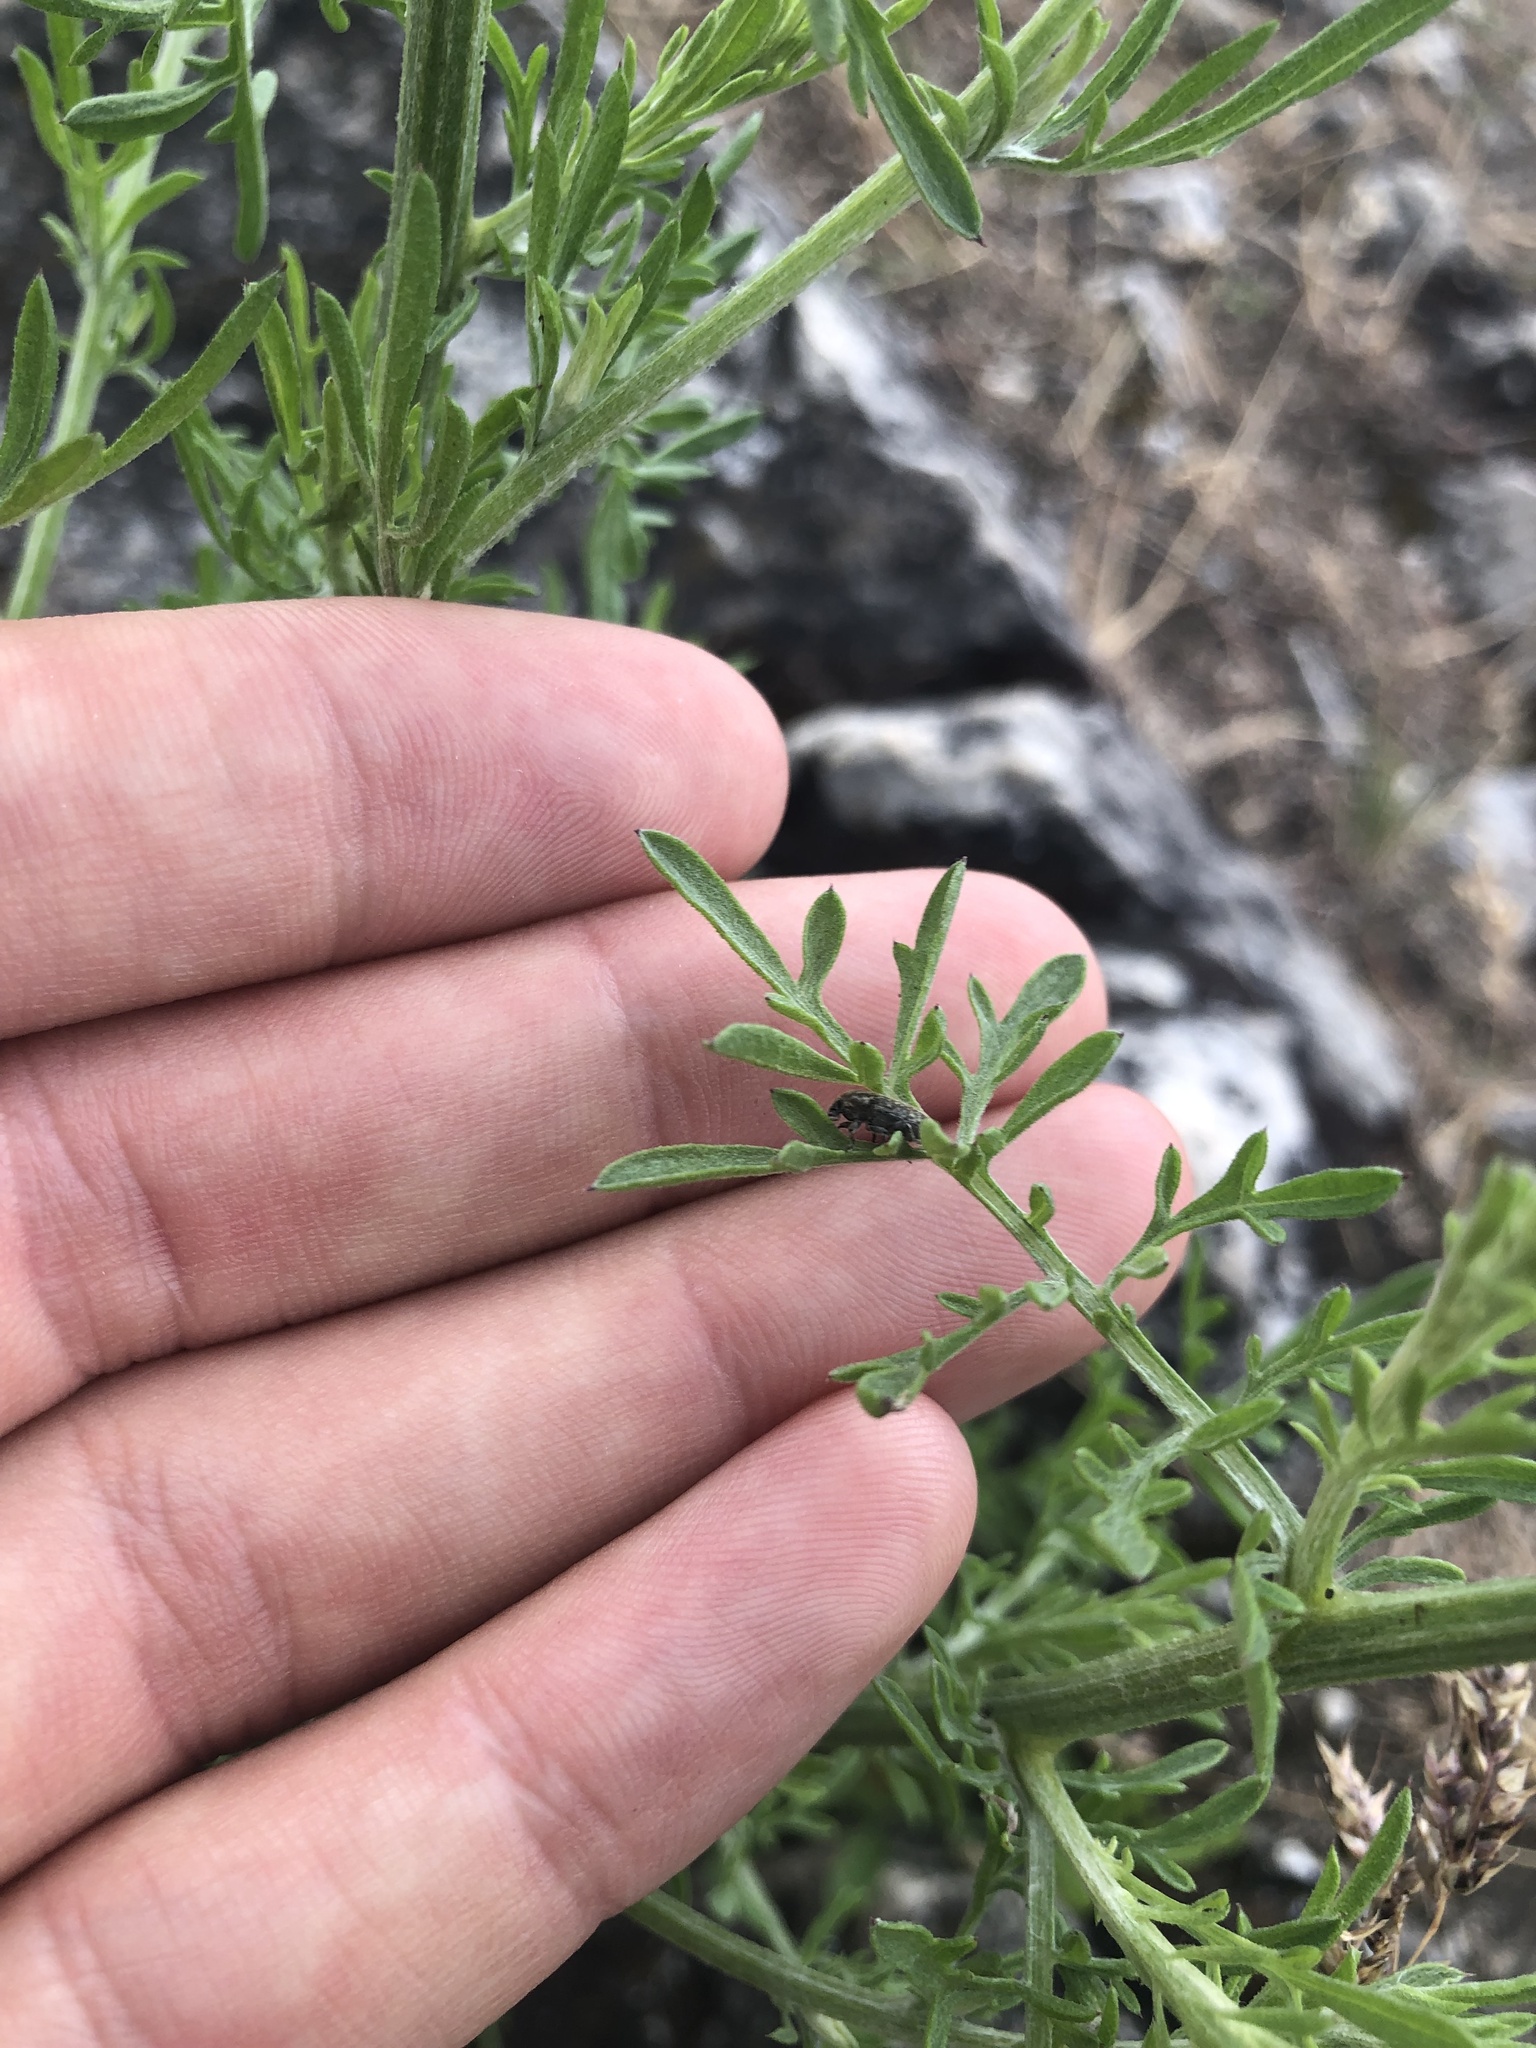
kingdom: Animalia
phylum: Arthropoda
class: Insecta
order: Coleoptera
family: Curculionidae
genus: Bangasternus
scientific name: Bangasternus fausti
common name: Broad-nosed knapweed seedhead weevil
